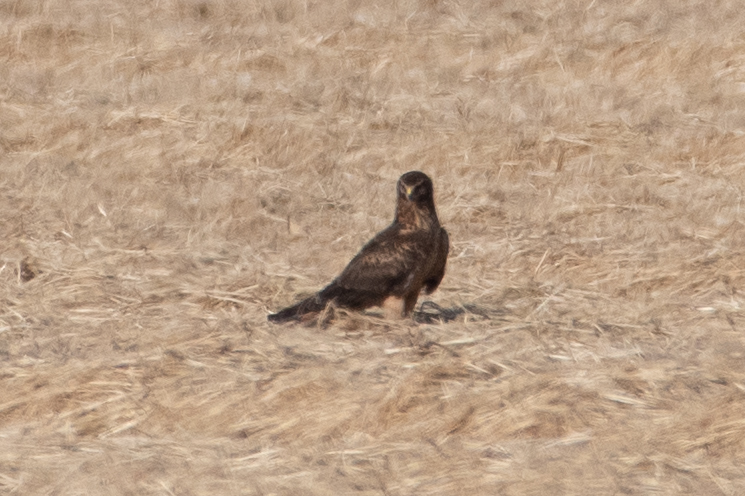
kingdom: Animalia
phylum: Chordata
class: Aves
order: Accipitriformes
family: Accipitridae
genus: Circus
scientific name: Circus cyaneus
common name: Hen harrier
